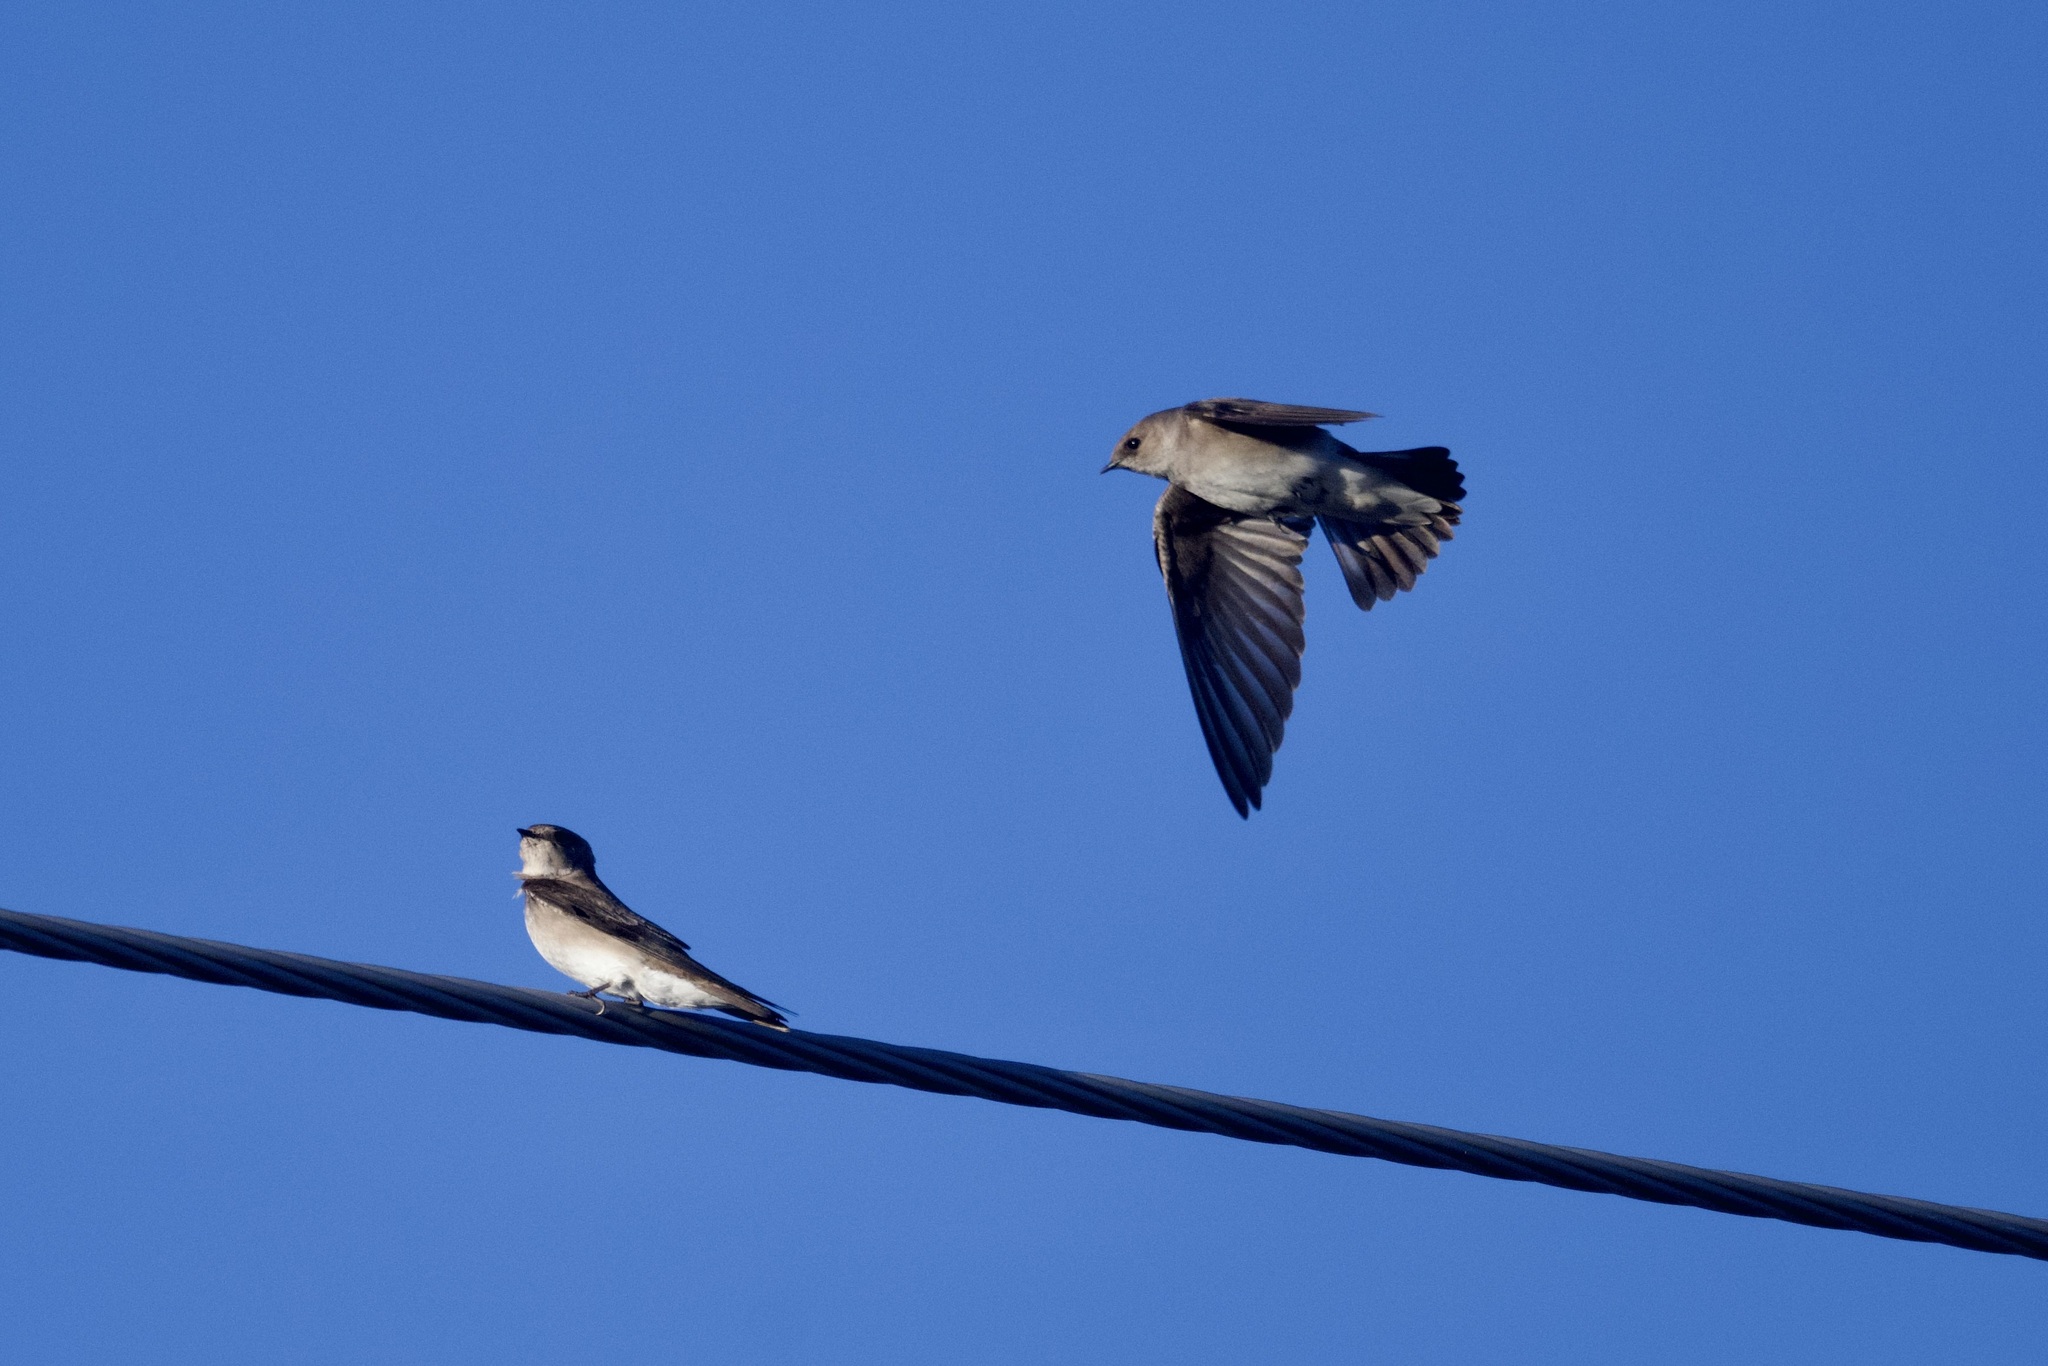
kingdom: Animalia
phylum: Chordata
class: Aves
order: Passeriformes
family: Hirundinidae
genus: Stelgidopteryx
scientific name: Stelgidopteryx serripennis
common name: Northern rough-winged swallow
